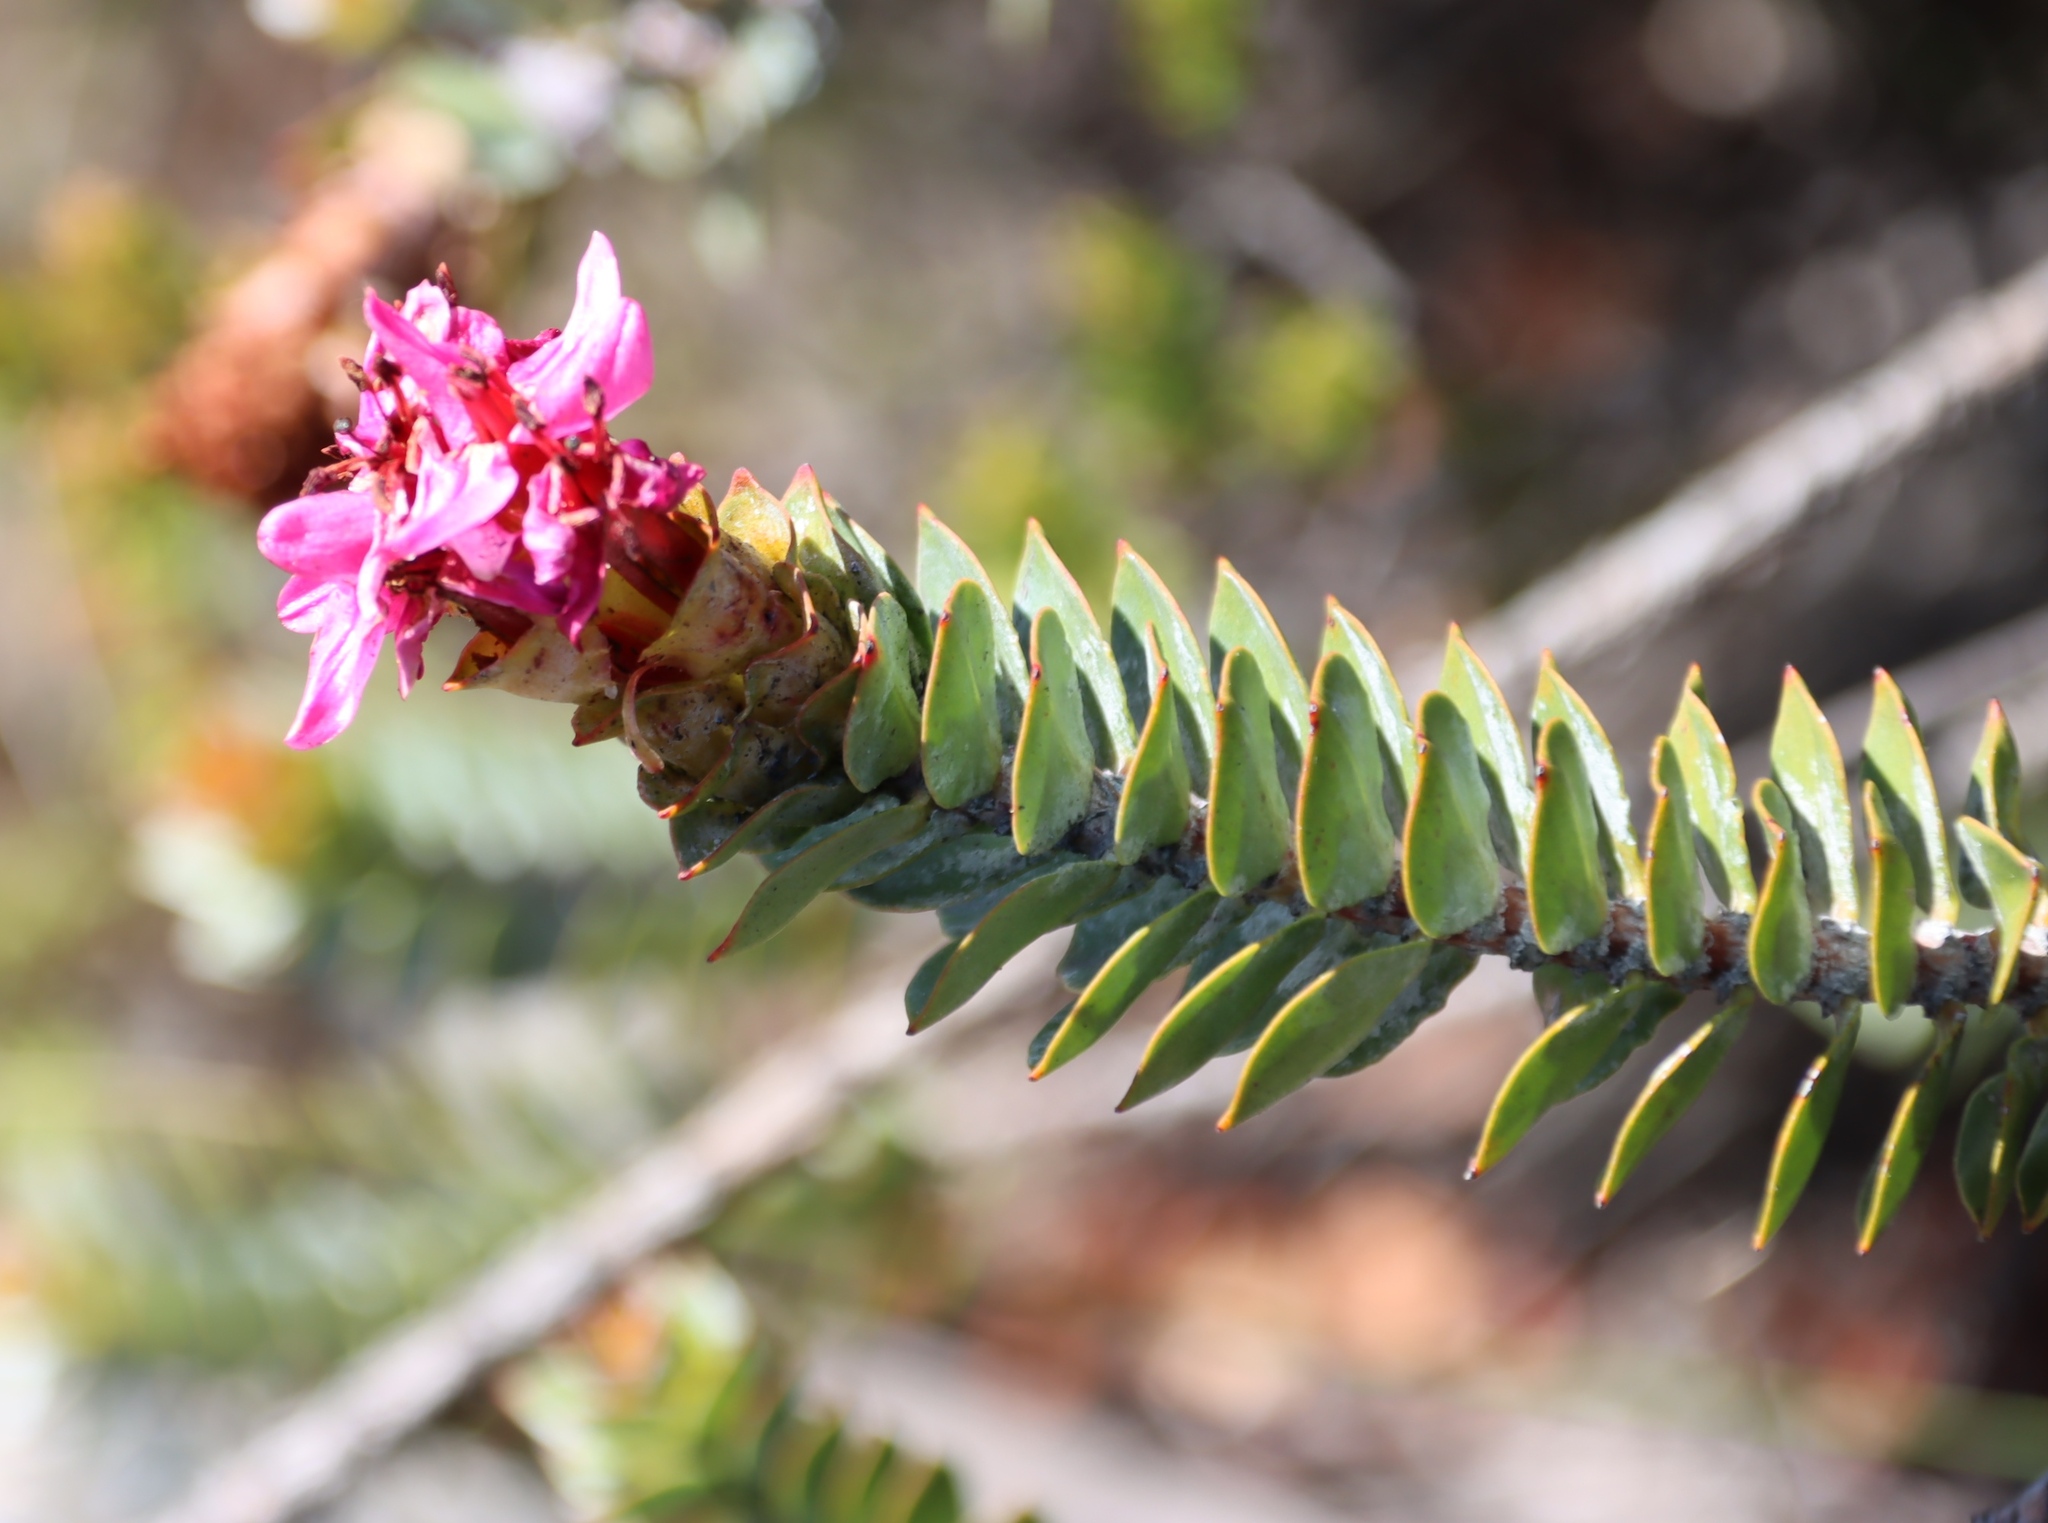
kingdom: Plantae
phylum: Tracheophyta
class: Magnoliopsida
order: Myrtales
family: Penaeaceae
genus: Saltera
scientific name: Saltera sarcocolla
